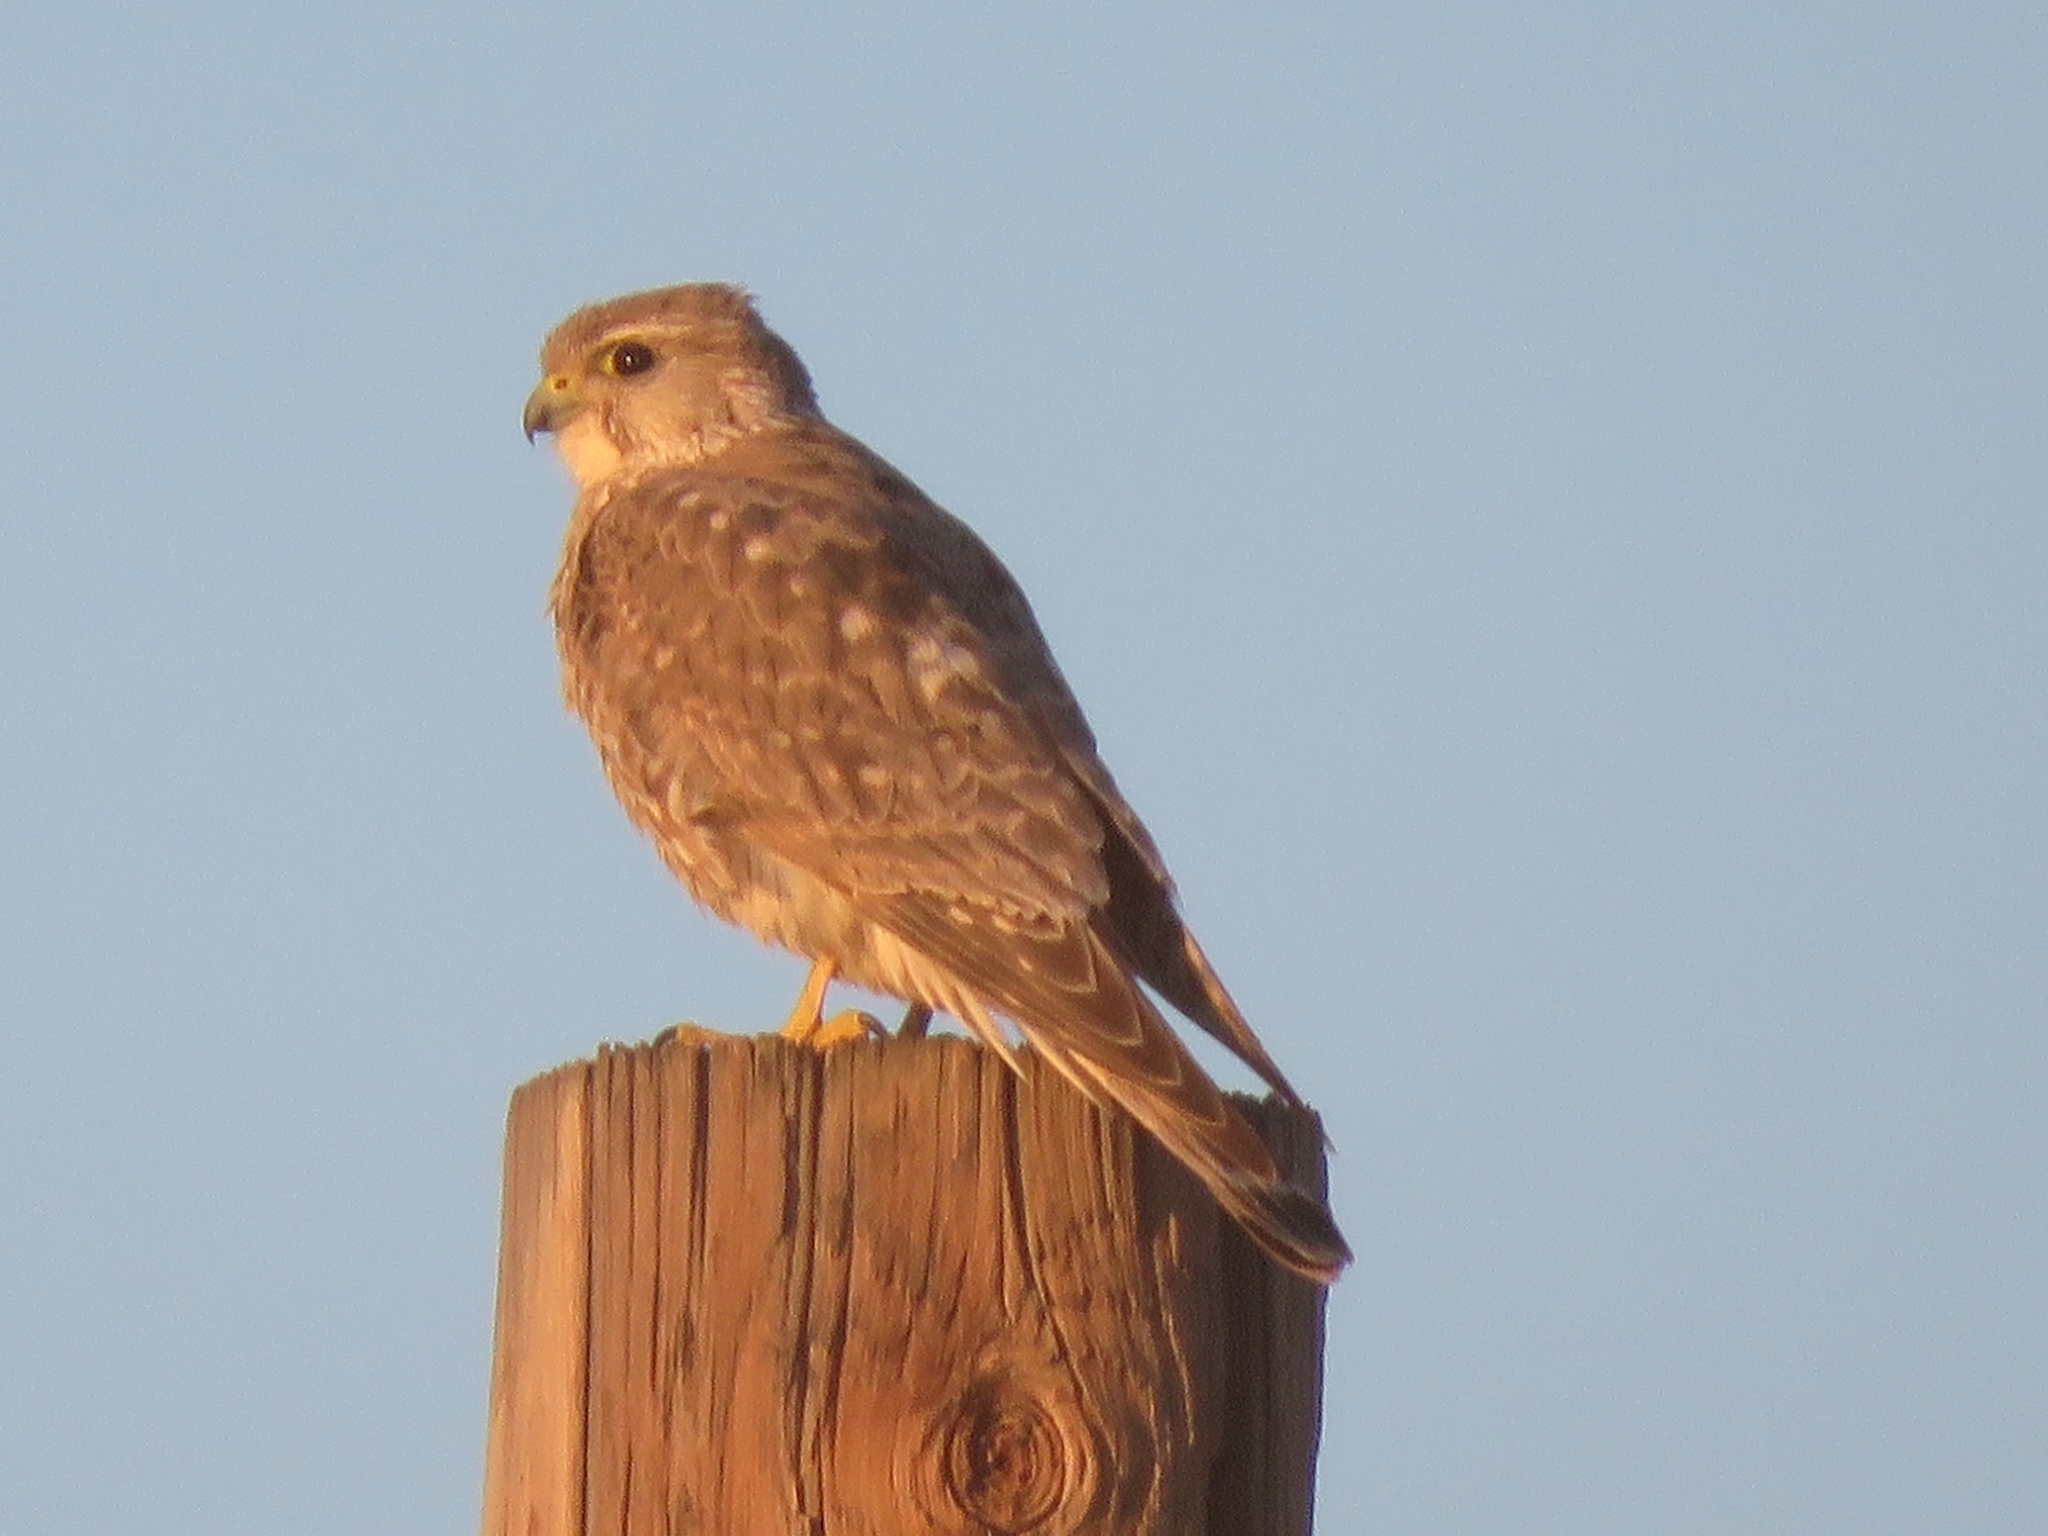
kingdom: Animalia
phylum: Chordata
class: Aves
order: Falconiformes
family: Falconidae
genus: Falco
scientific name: Falco columbarius
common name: Merlin
